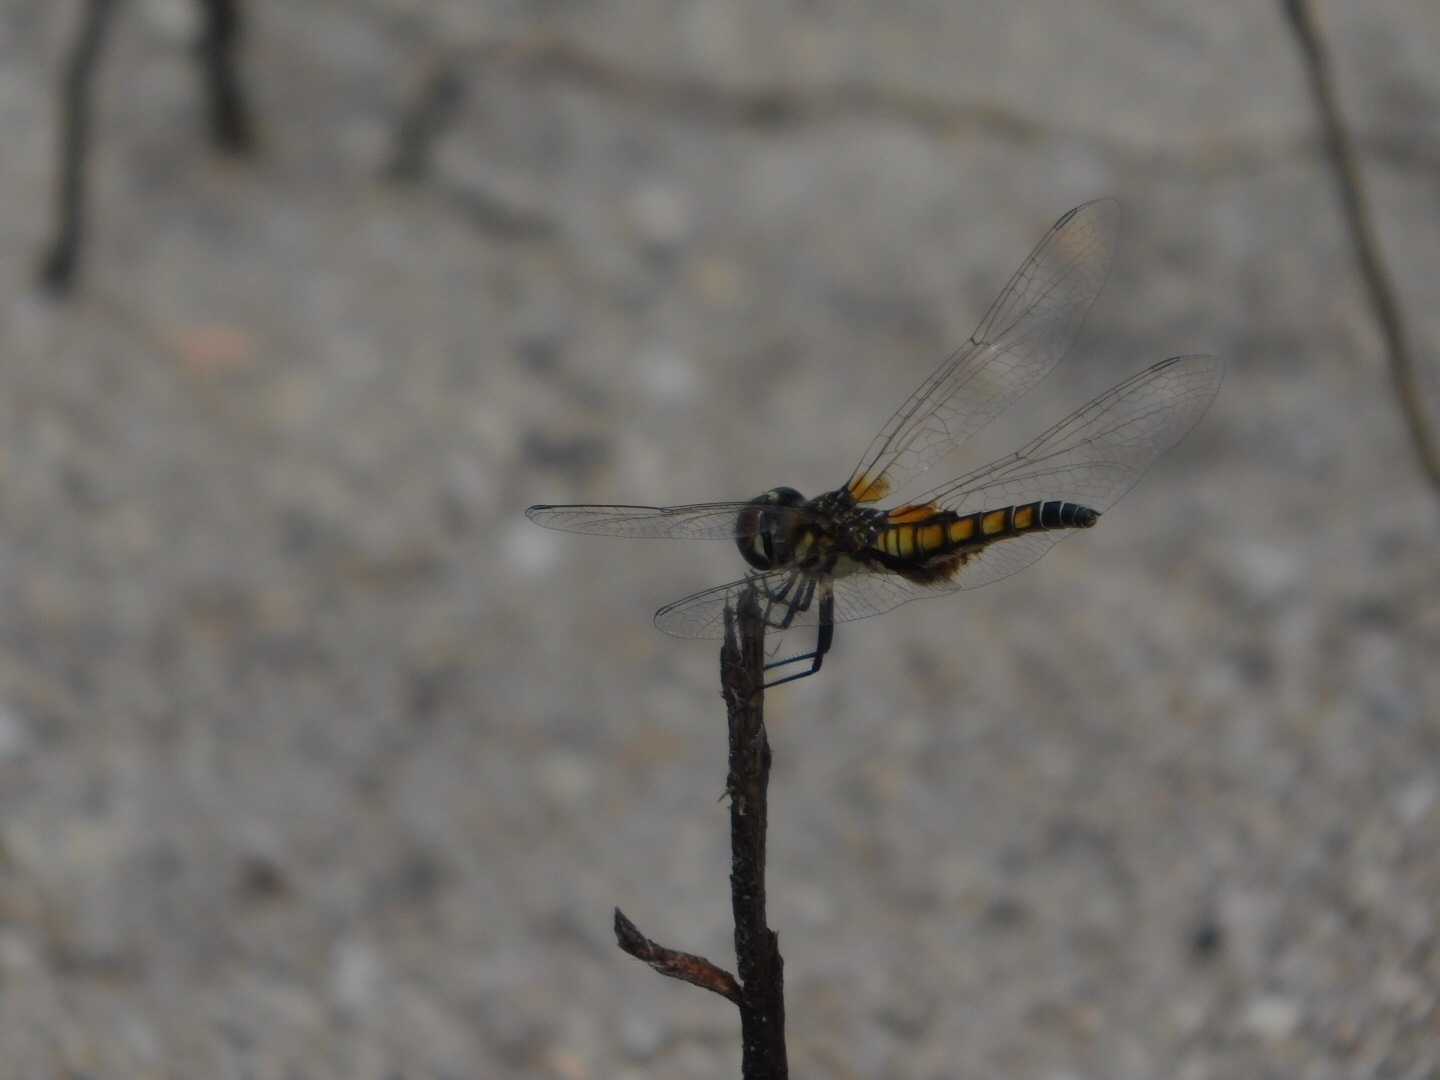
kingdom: Animalia
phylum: Arthropoda
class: Insecta
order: Odonata
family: Libellulidae
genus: Macrodiplax
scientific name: Macrodiplax balteata
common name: Marl pennant
